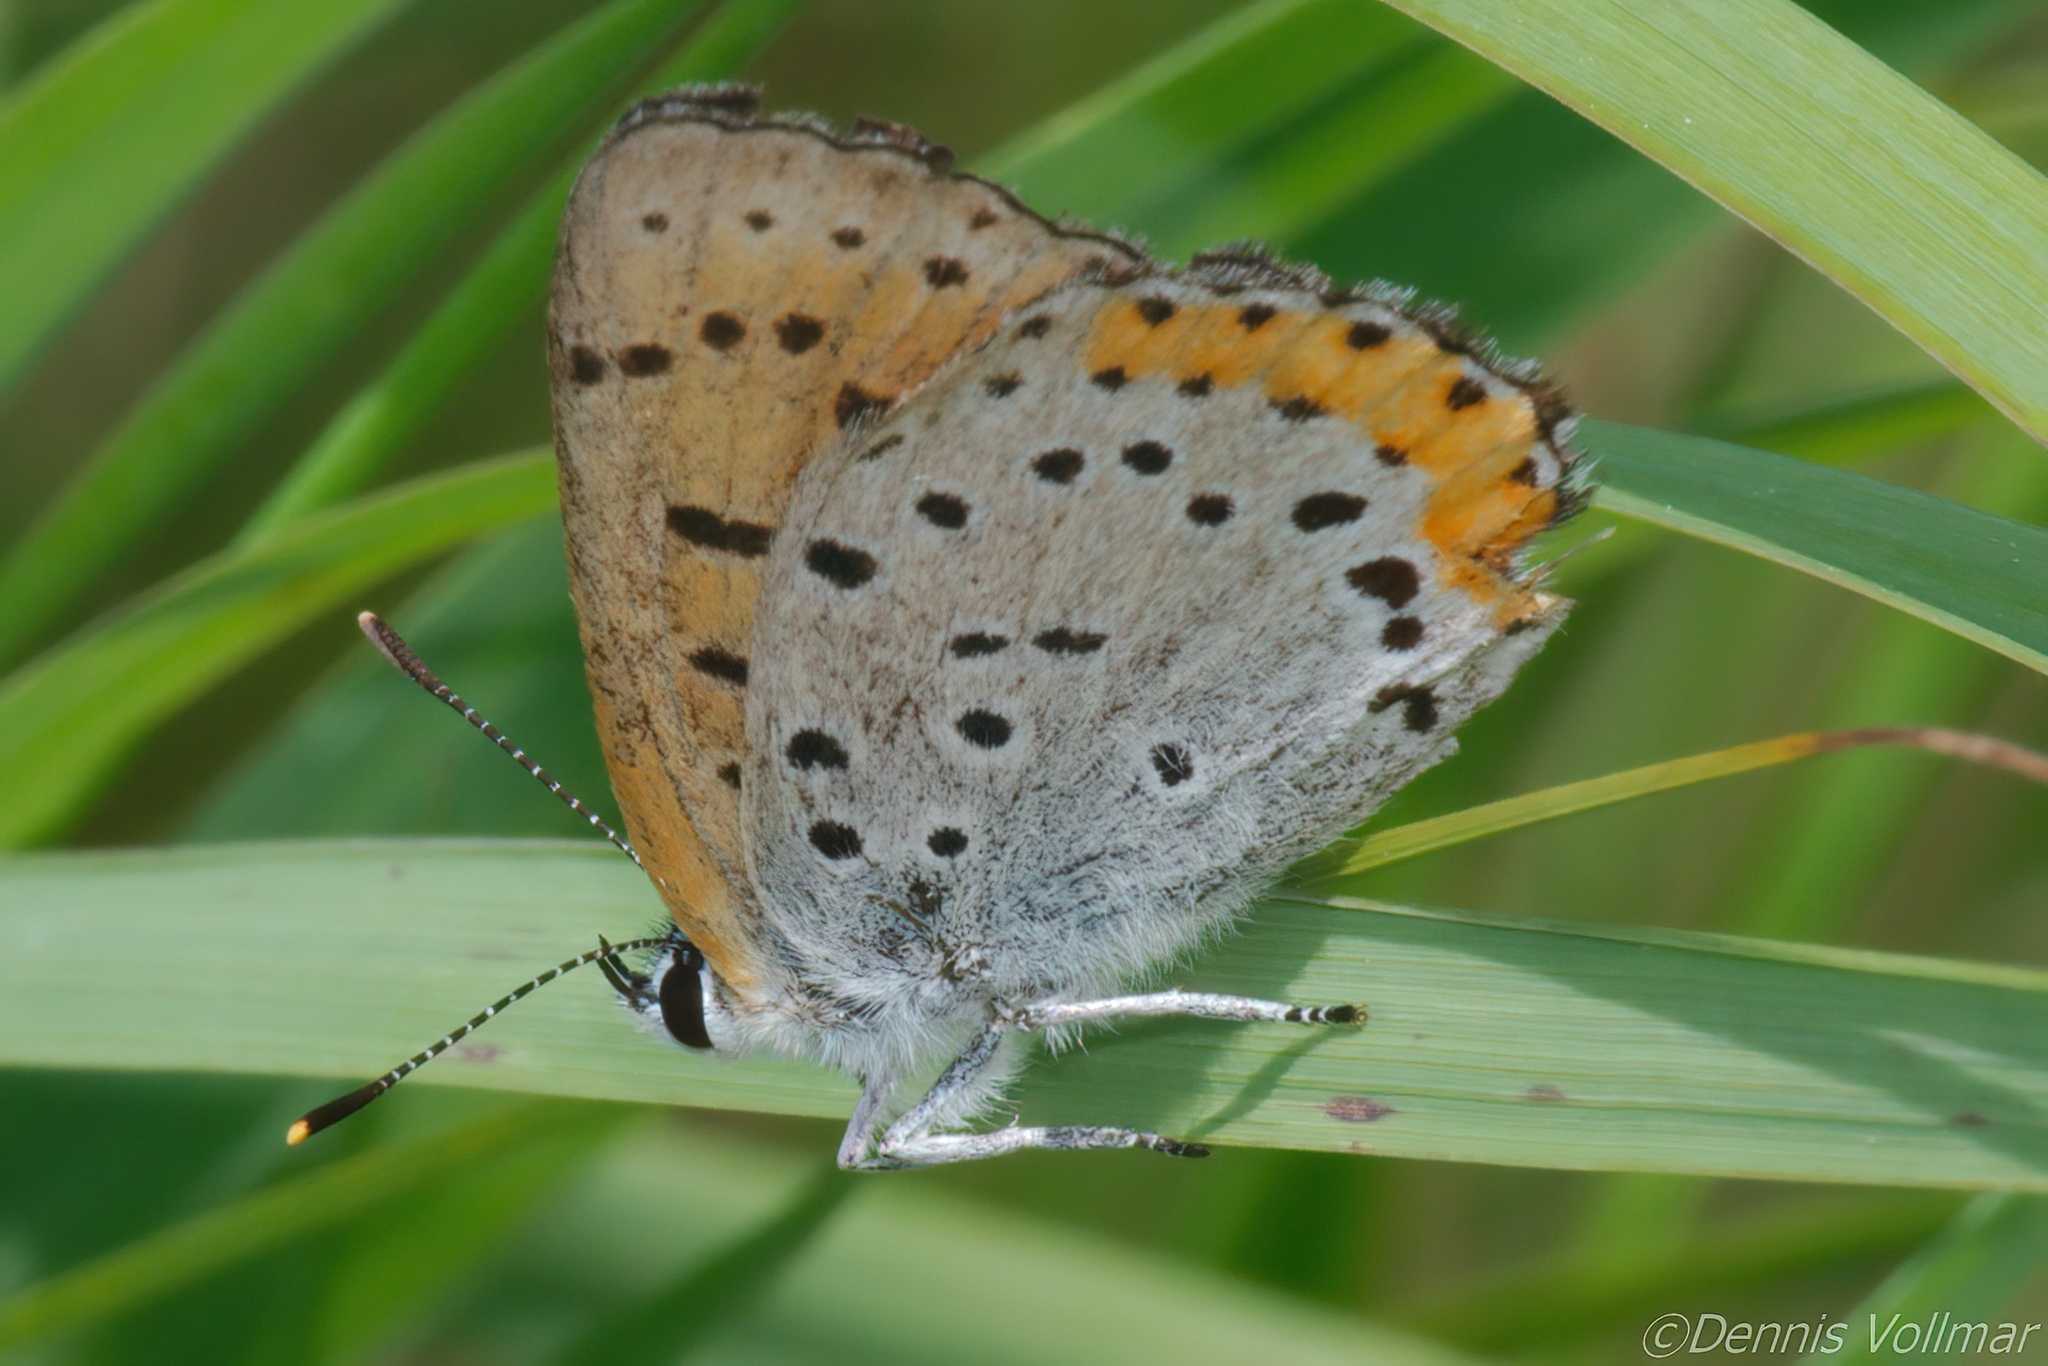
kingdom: Animalia
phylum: Arthropoda
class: Insecta
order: Lepidoptera
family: Lycaenidae
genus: Tharsalea
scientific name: Tharsalea hyllus
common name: Bronze copper
